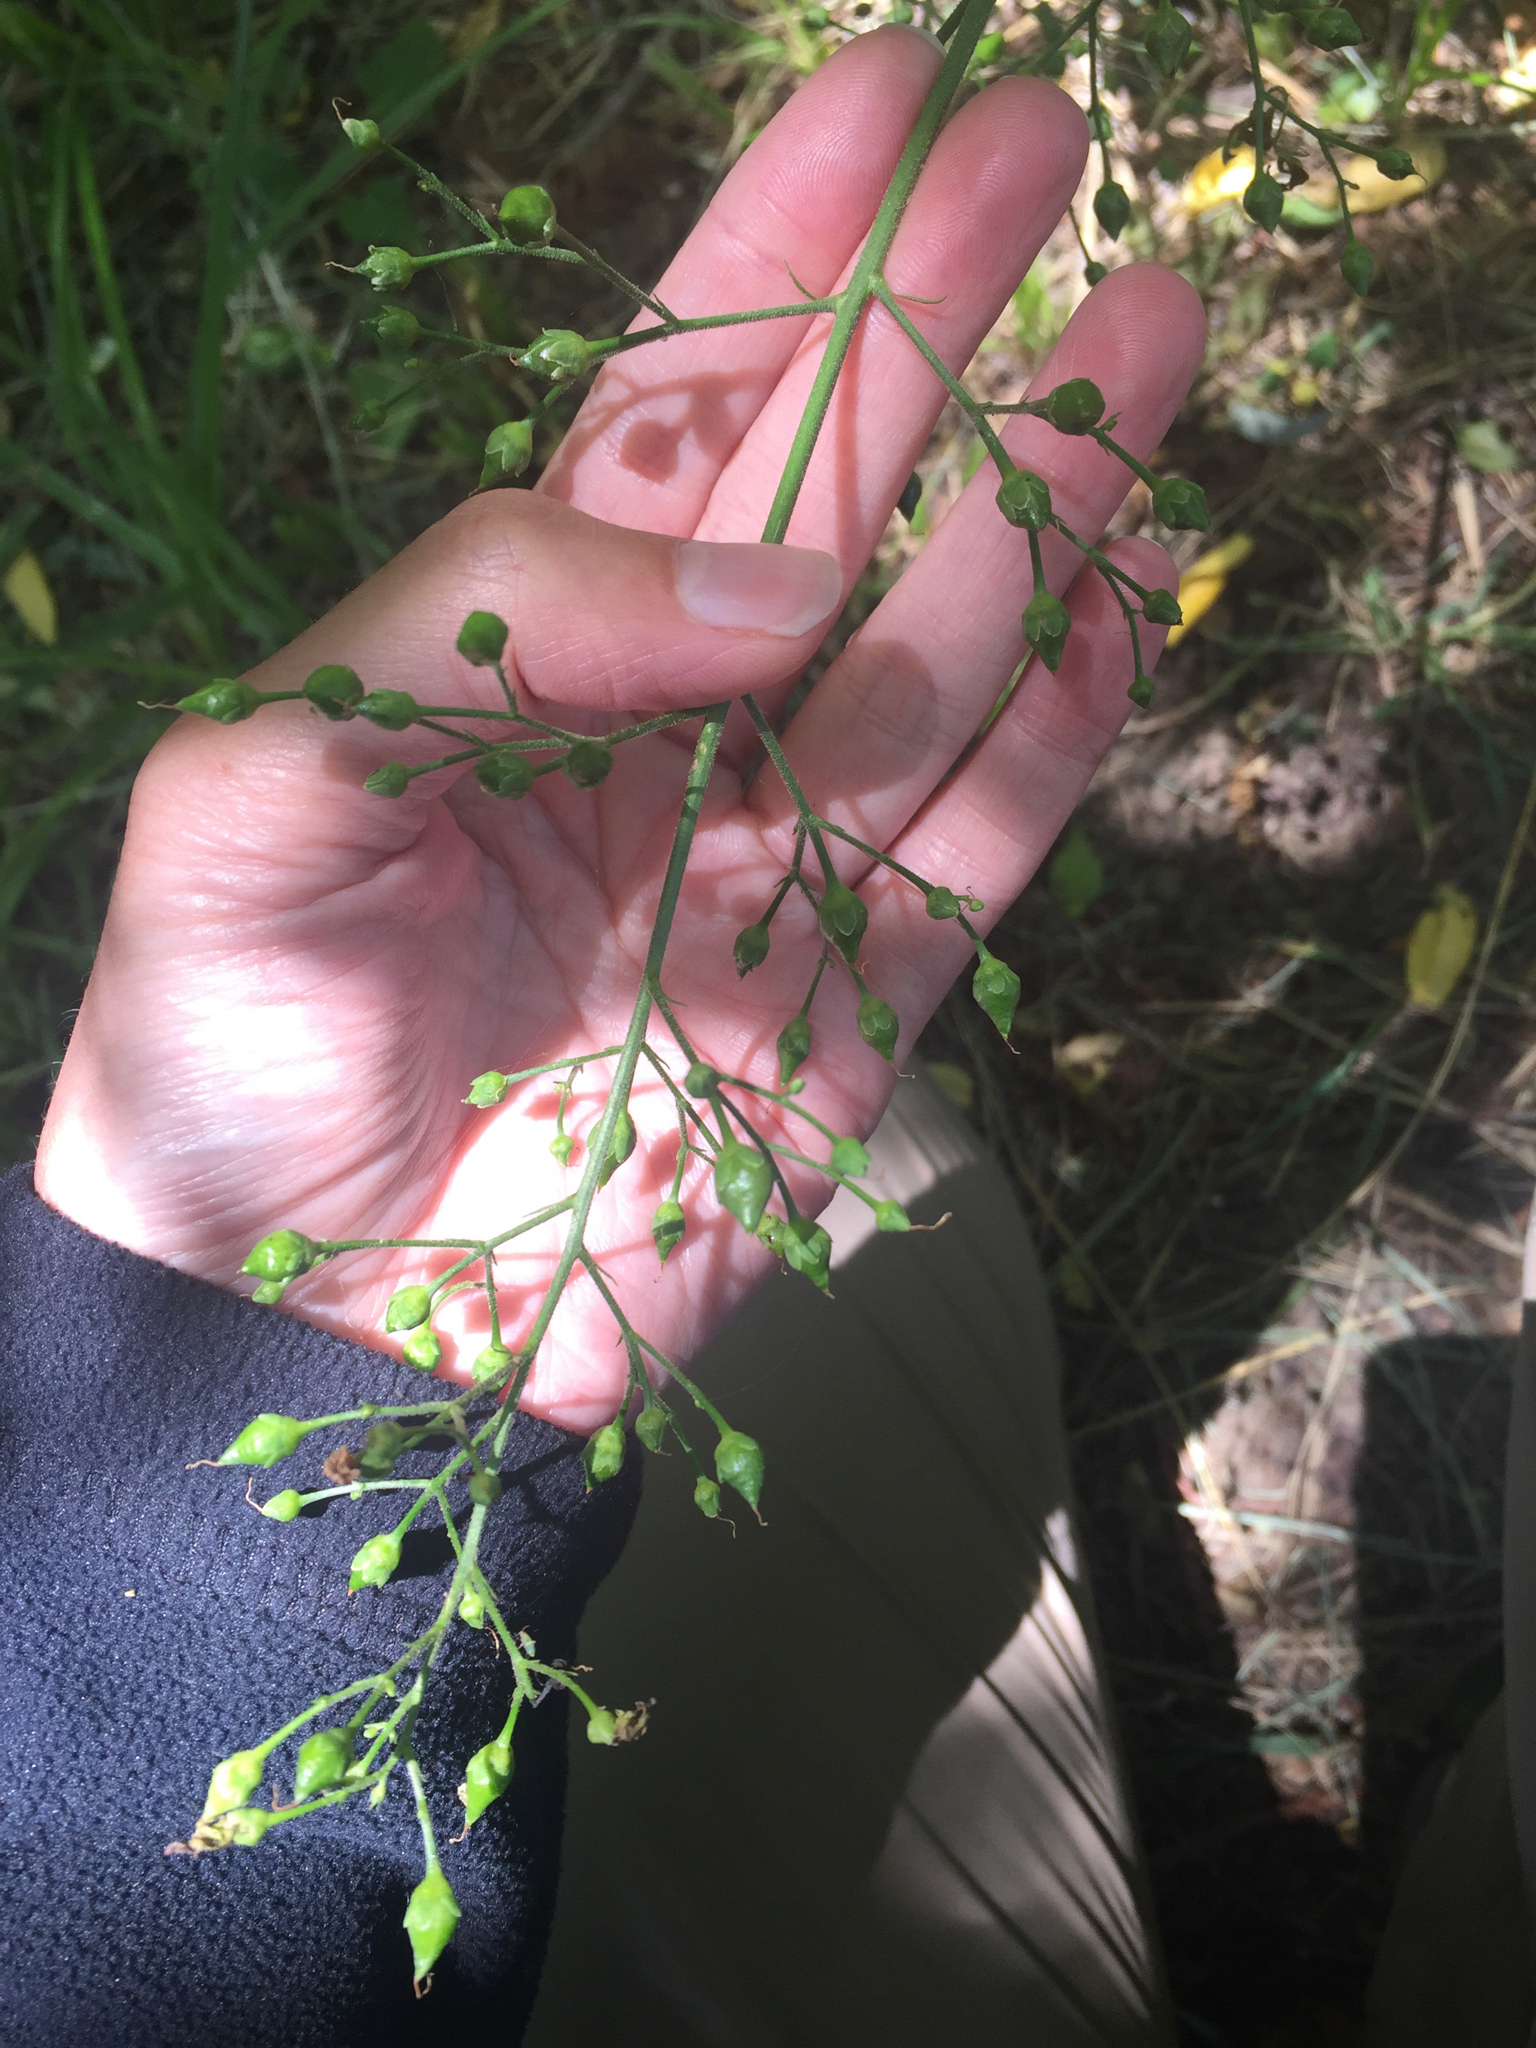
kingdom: Plantae
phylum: Tracheophyta
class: Magnoliopsida
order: Lamiales
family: Scrophulariaceae
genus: Scrophularia
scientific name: Scrophularia californica
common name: California figwort
